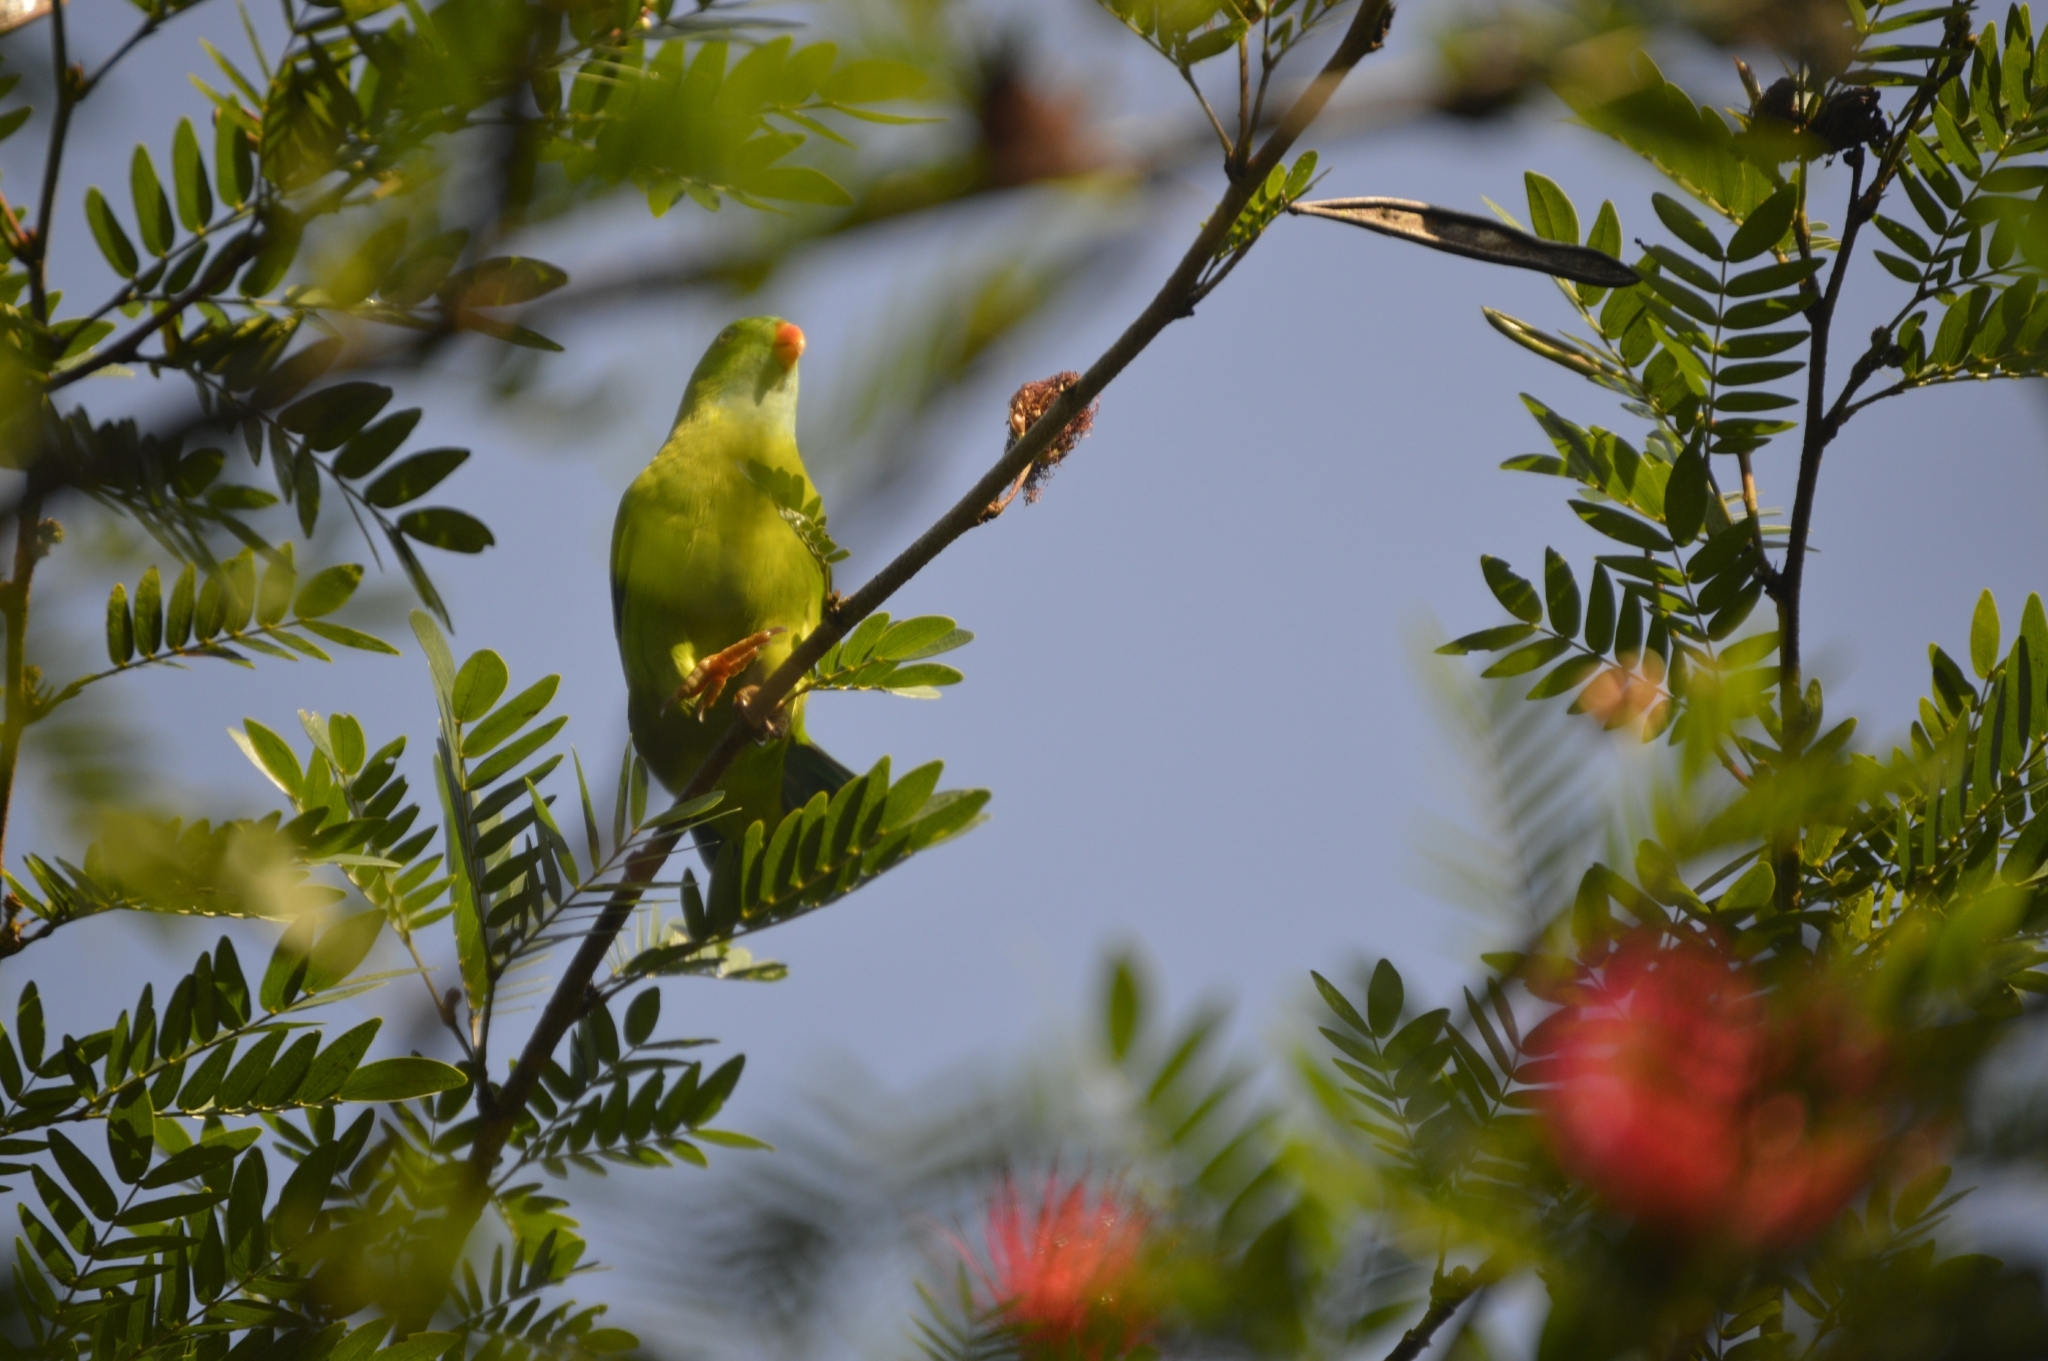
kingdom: Animalia
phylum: Chordata
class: Aves
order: Psittaciformes
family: Psittacidae
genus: Loriculus
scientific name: Loriculus vernalis
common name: Vernal hanging parrot
